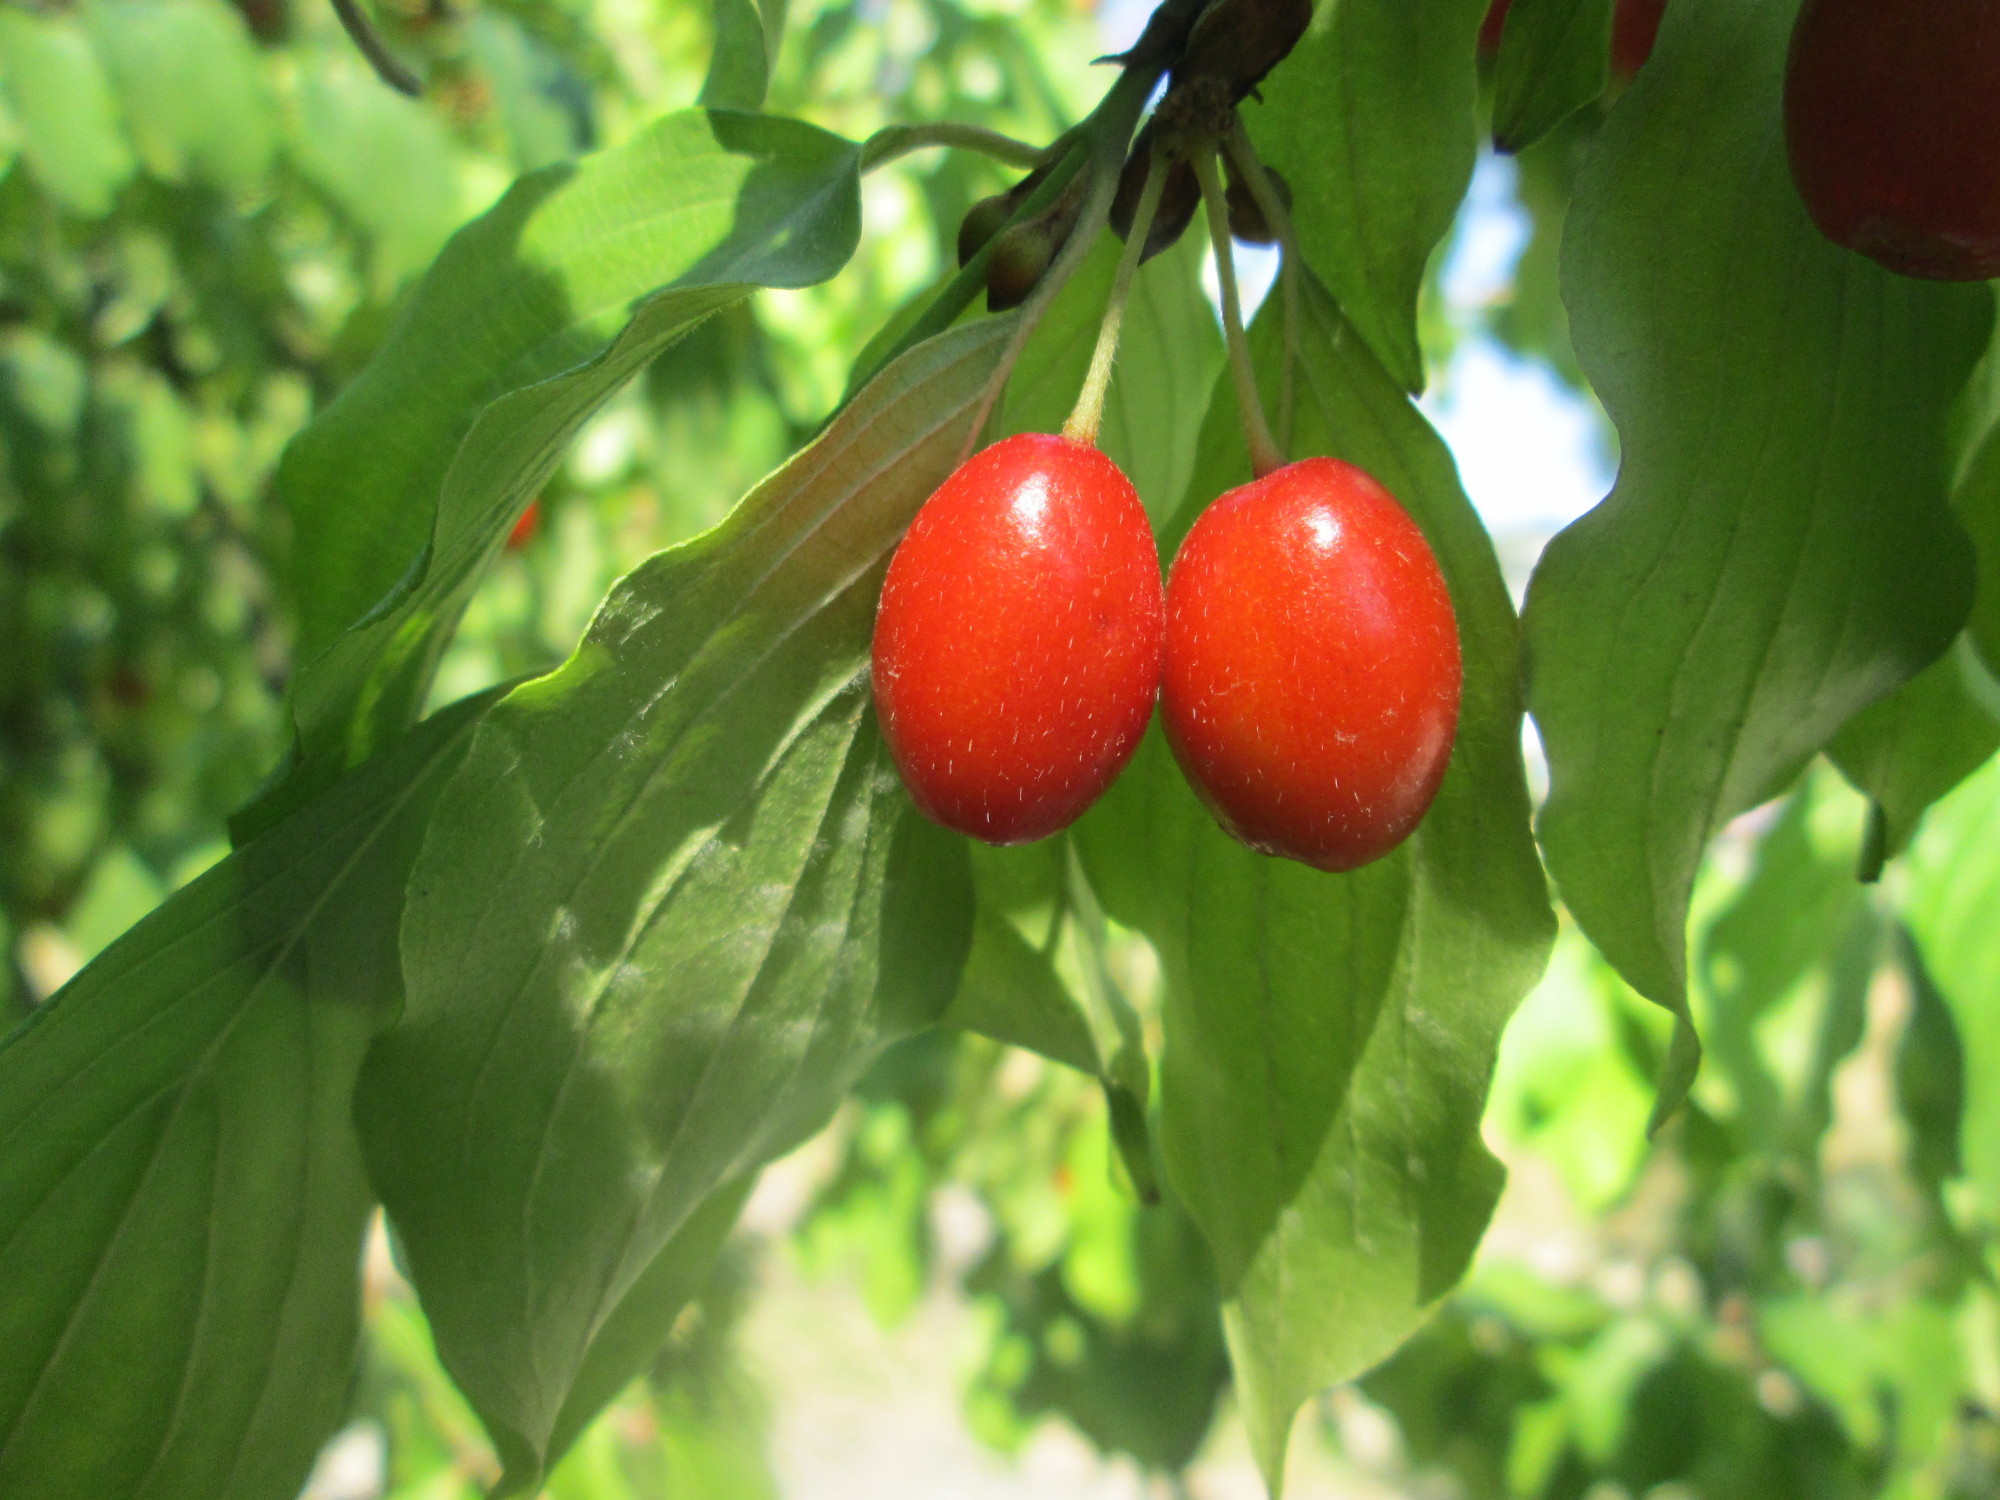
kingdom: Plantae
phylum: Tracheophyta
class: Magnoliopsida
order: Cornales
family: Cornaceae
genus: Cornus
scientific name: Cornus mas
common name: Cornelian-cherry
